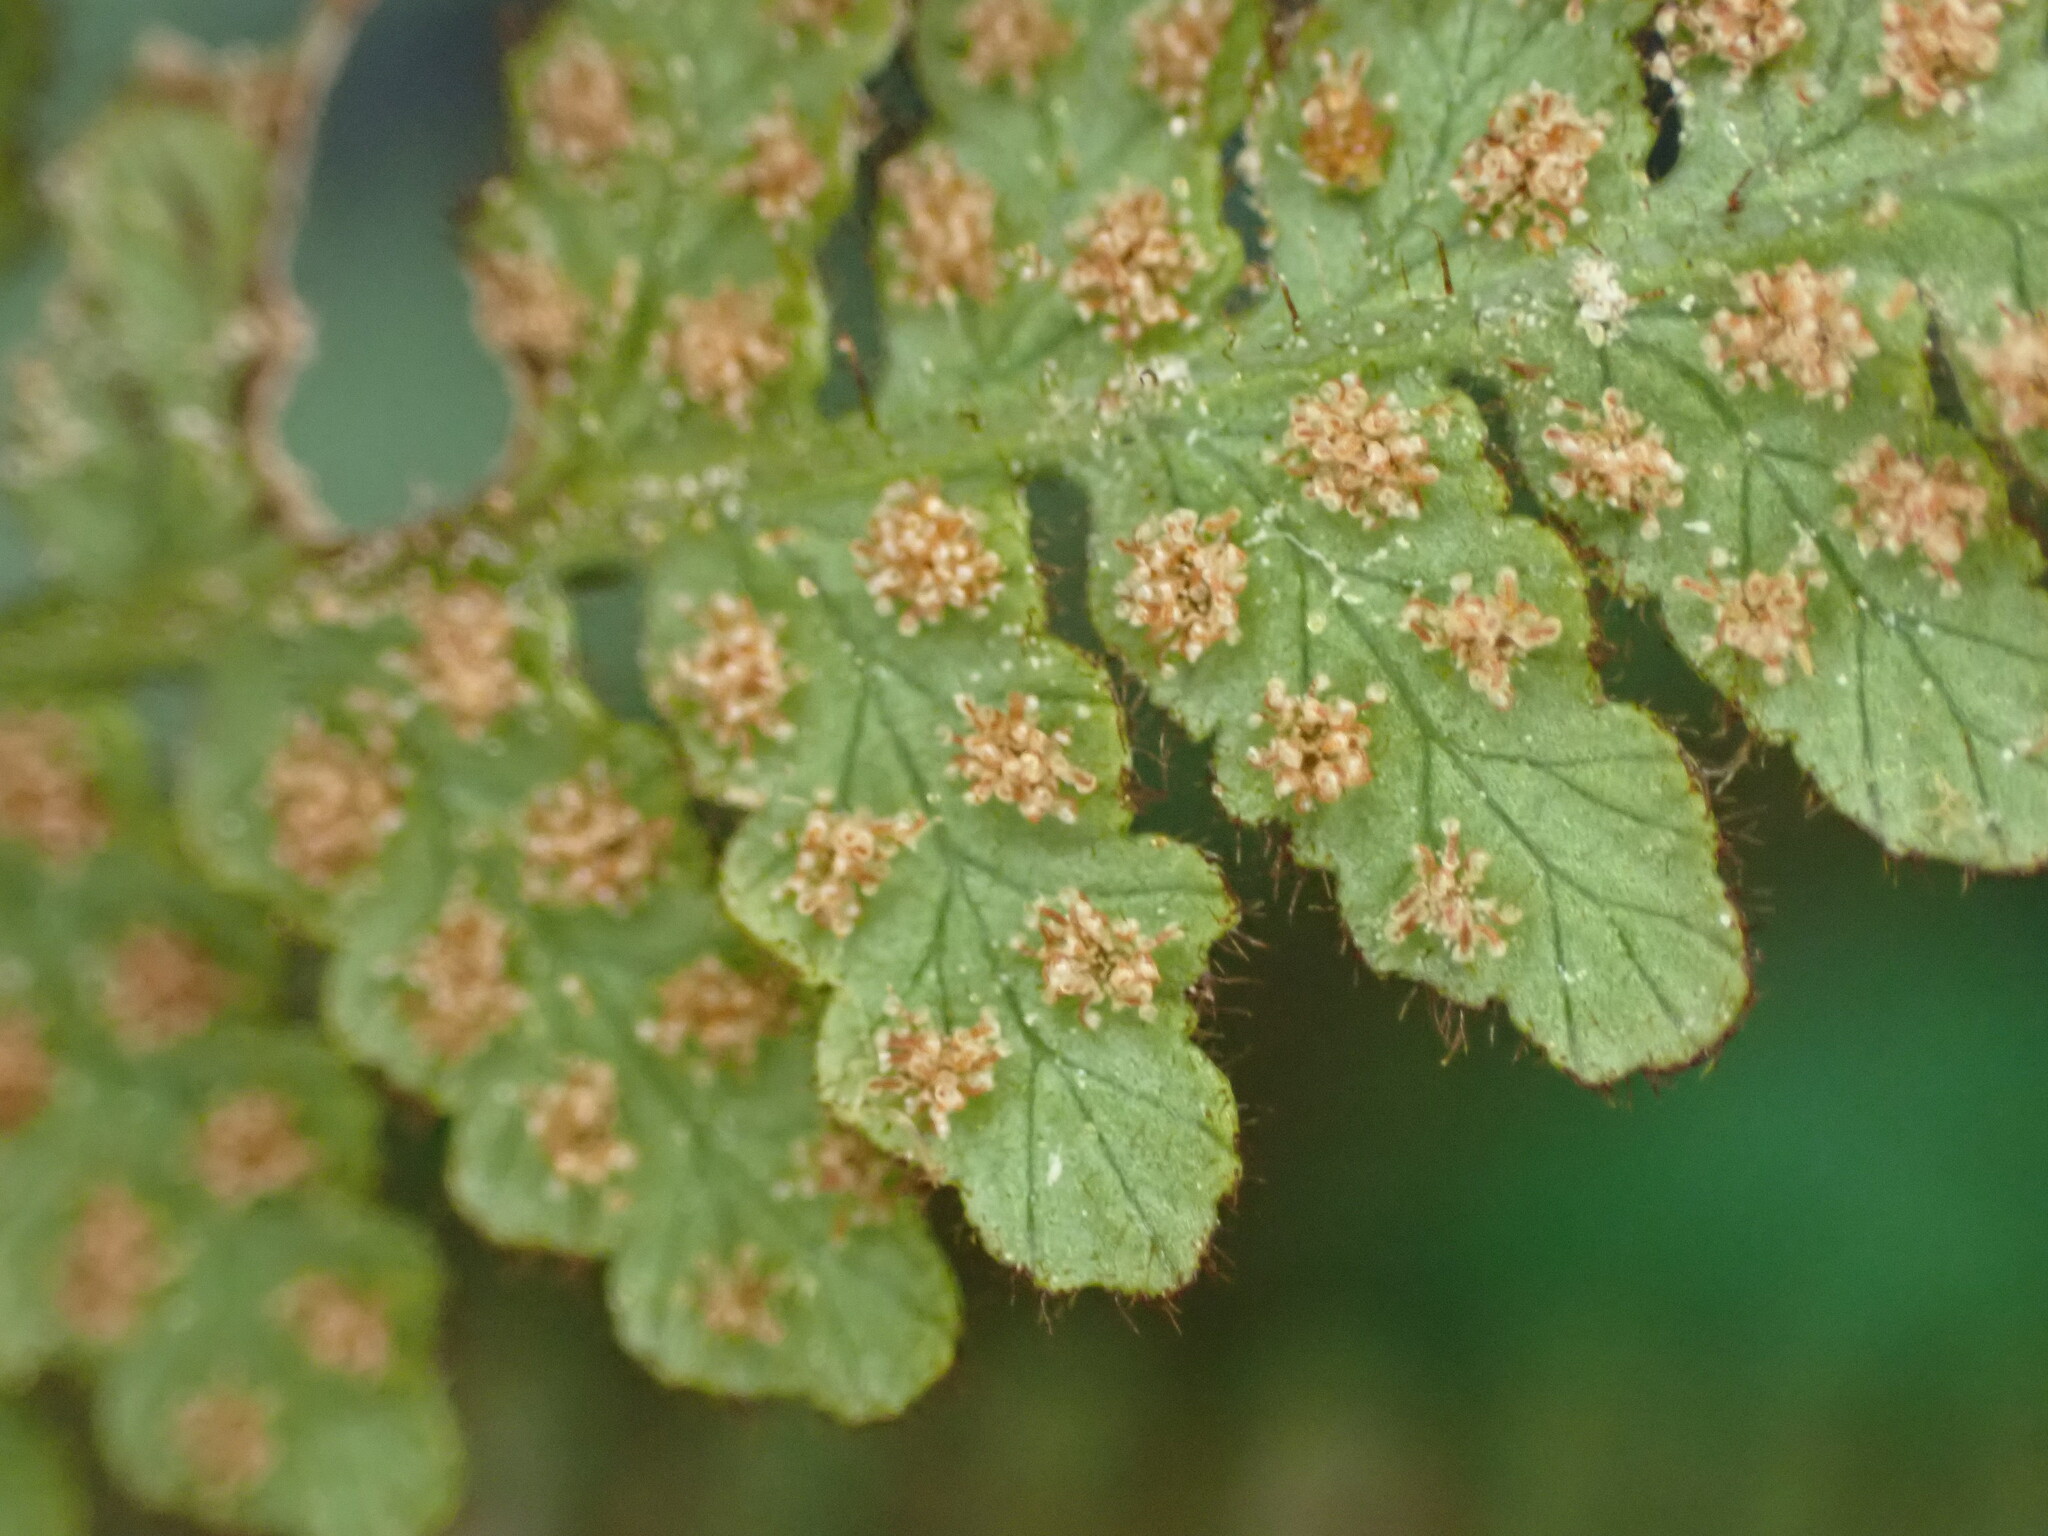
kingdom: Plantae
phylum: Tracheophyta
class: Polypodiopsida
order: Polypodiales
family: Dennstaedtiaceae
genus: Hypolepis
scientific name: Hypolepis rugosula
